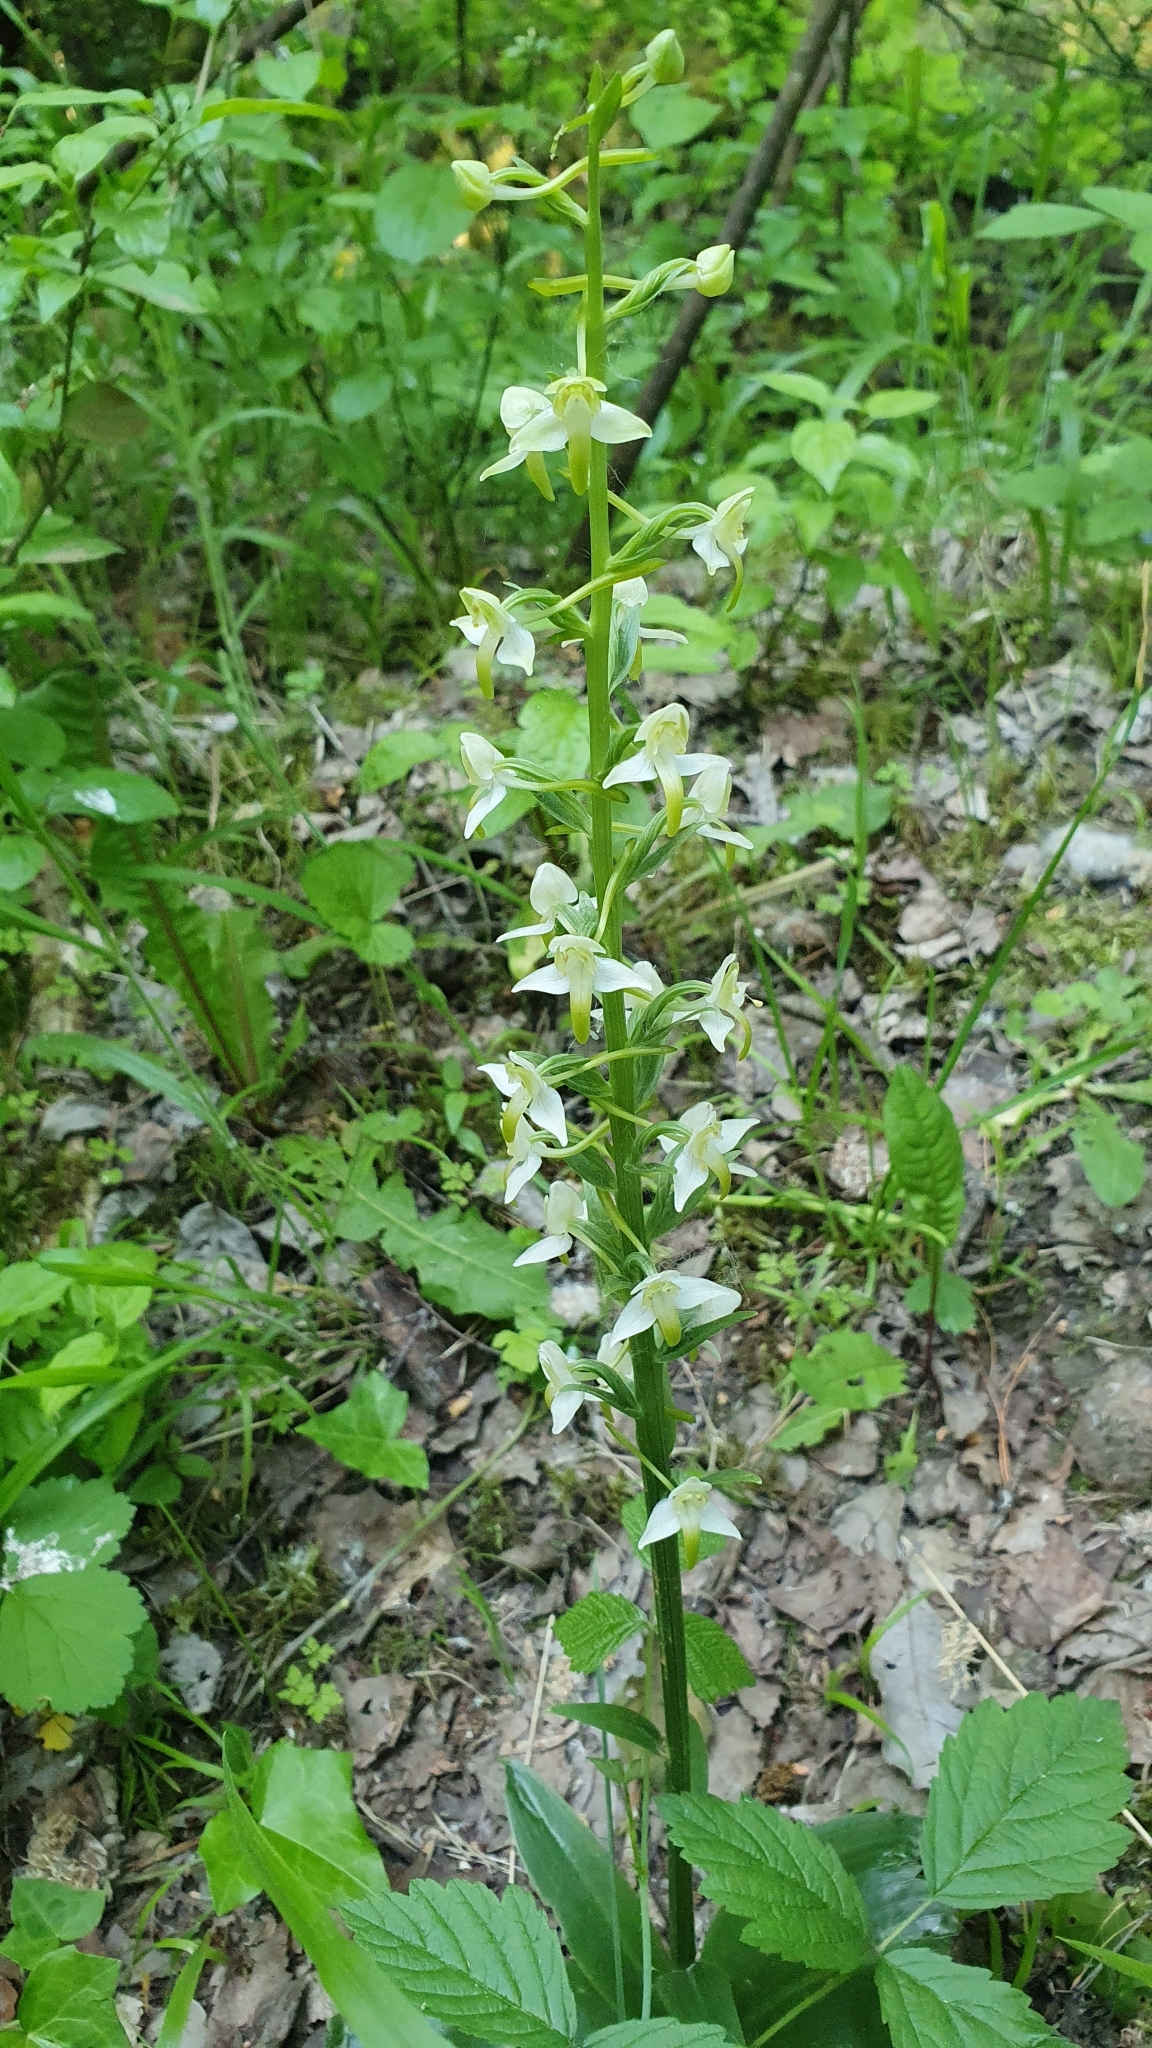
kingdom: Plantae
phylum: Tracheophyta
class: Liliopsida
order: Asparagales
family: Orchidaceae
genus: Platanthera
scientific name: Platanthera chlorantha
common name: Greater butterfly-orchid
